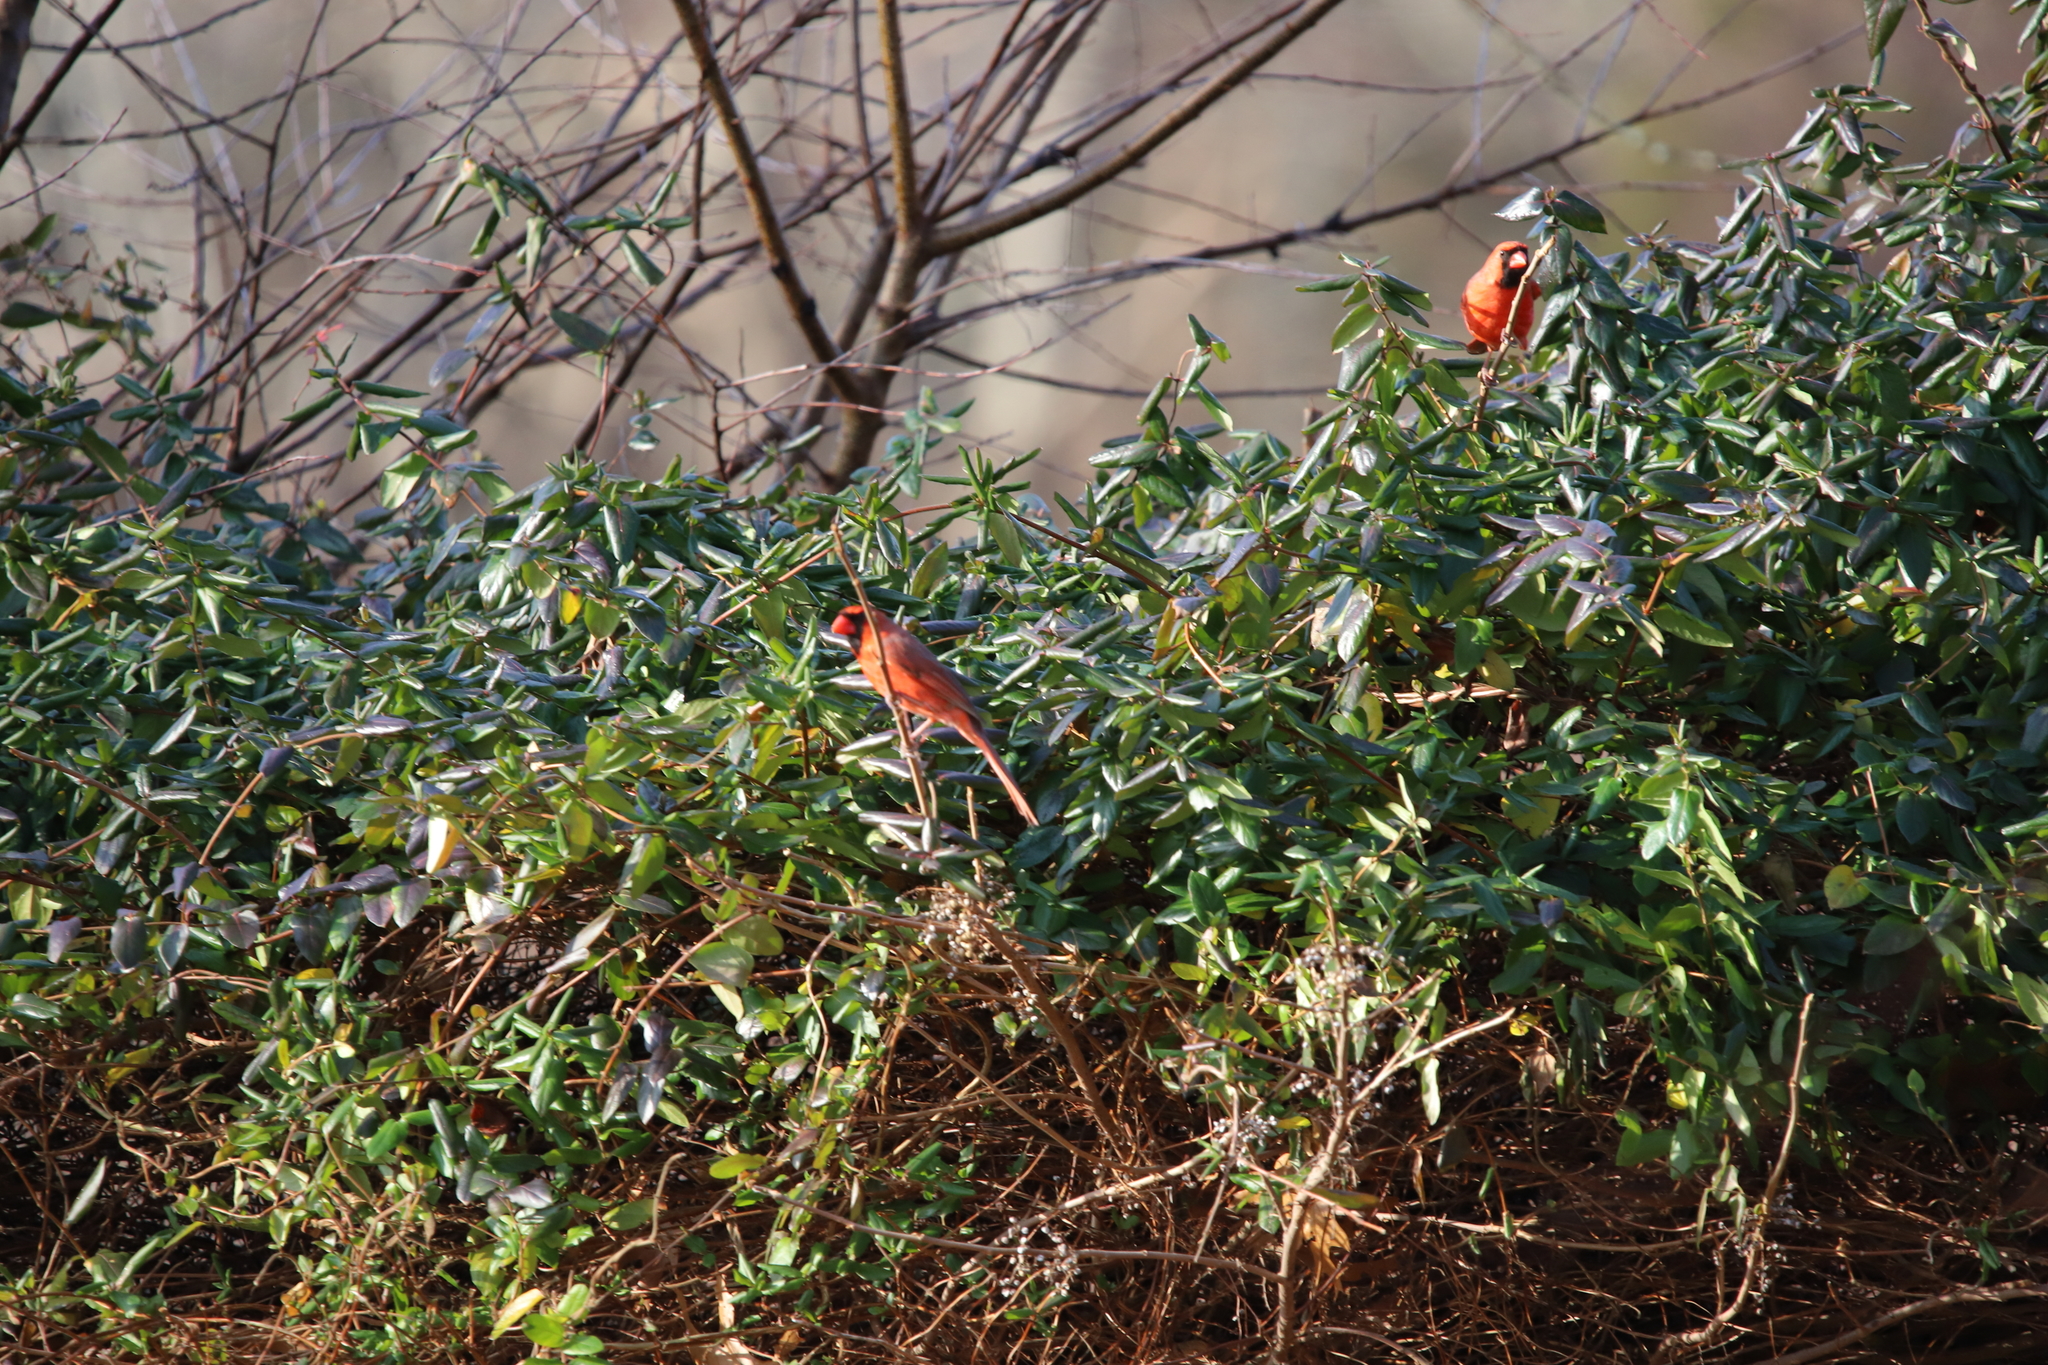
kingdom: Animalia
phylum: Chordata
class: Aves
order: Passeriformes
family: Cardinalidae
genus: Cardinalis
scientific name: Cardinalis cardinalis
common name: Northern cardinal
